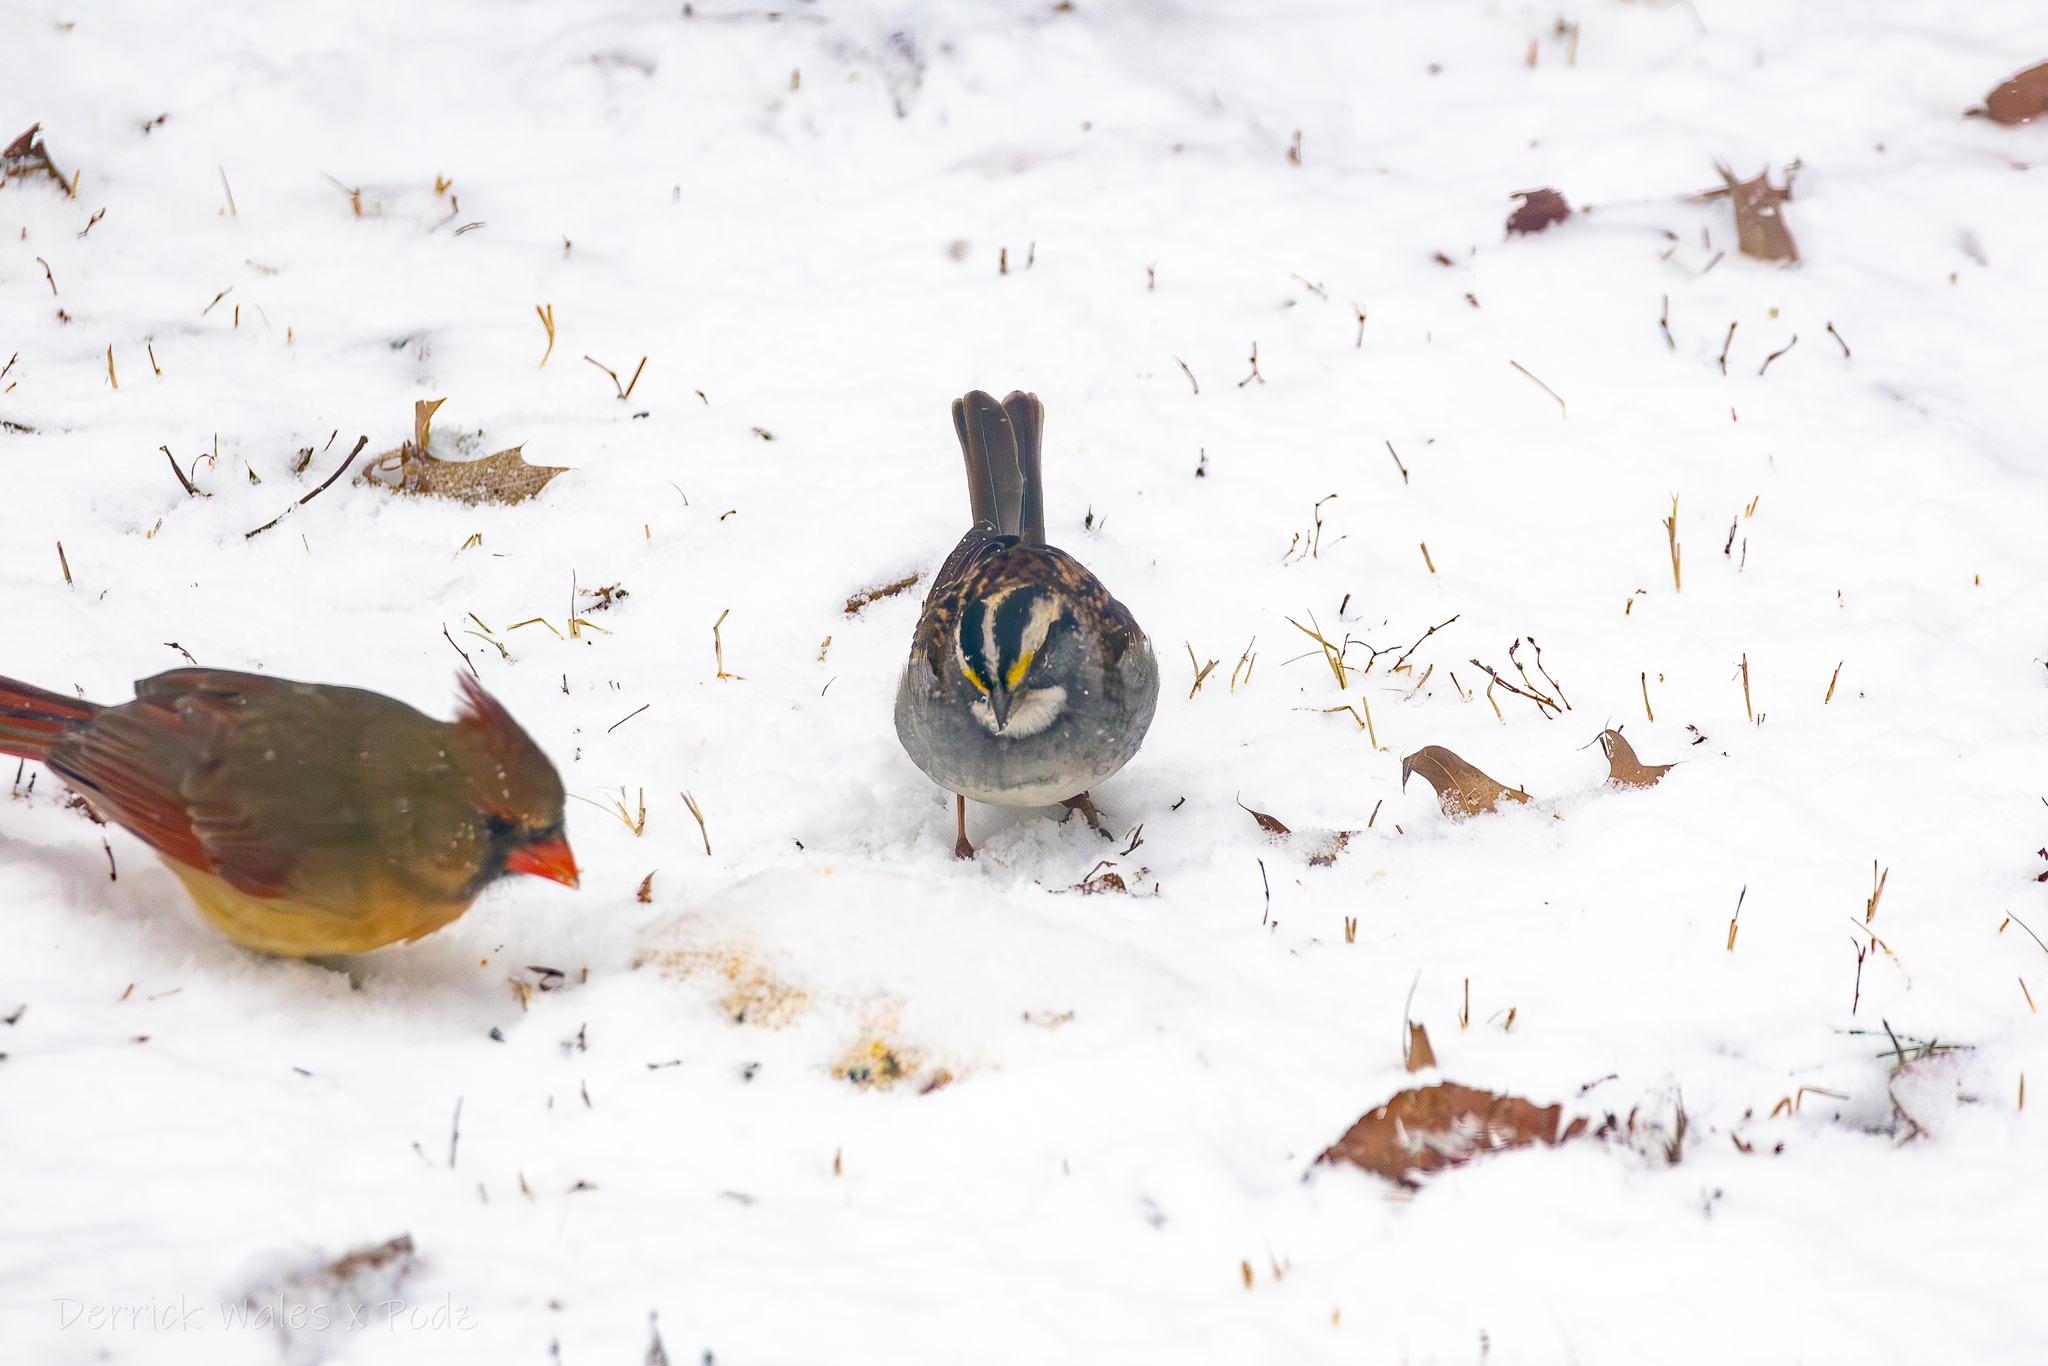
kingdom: Animalia
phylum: Chordata
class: Aves
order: Passeriformes
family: Passerellidae
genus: Zonotrichia
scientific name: Zonotrichia albicollis
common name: White-throated sparrow
